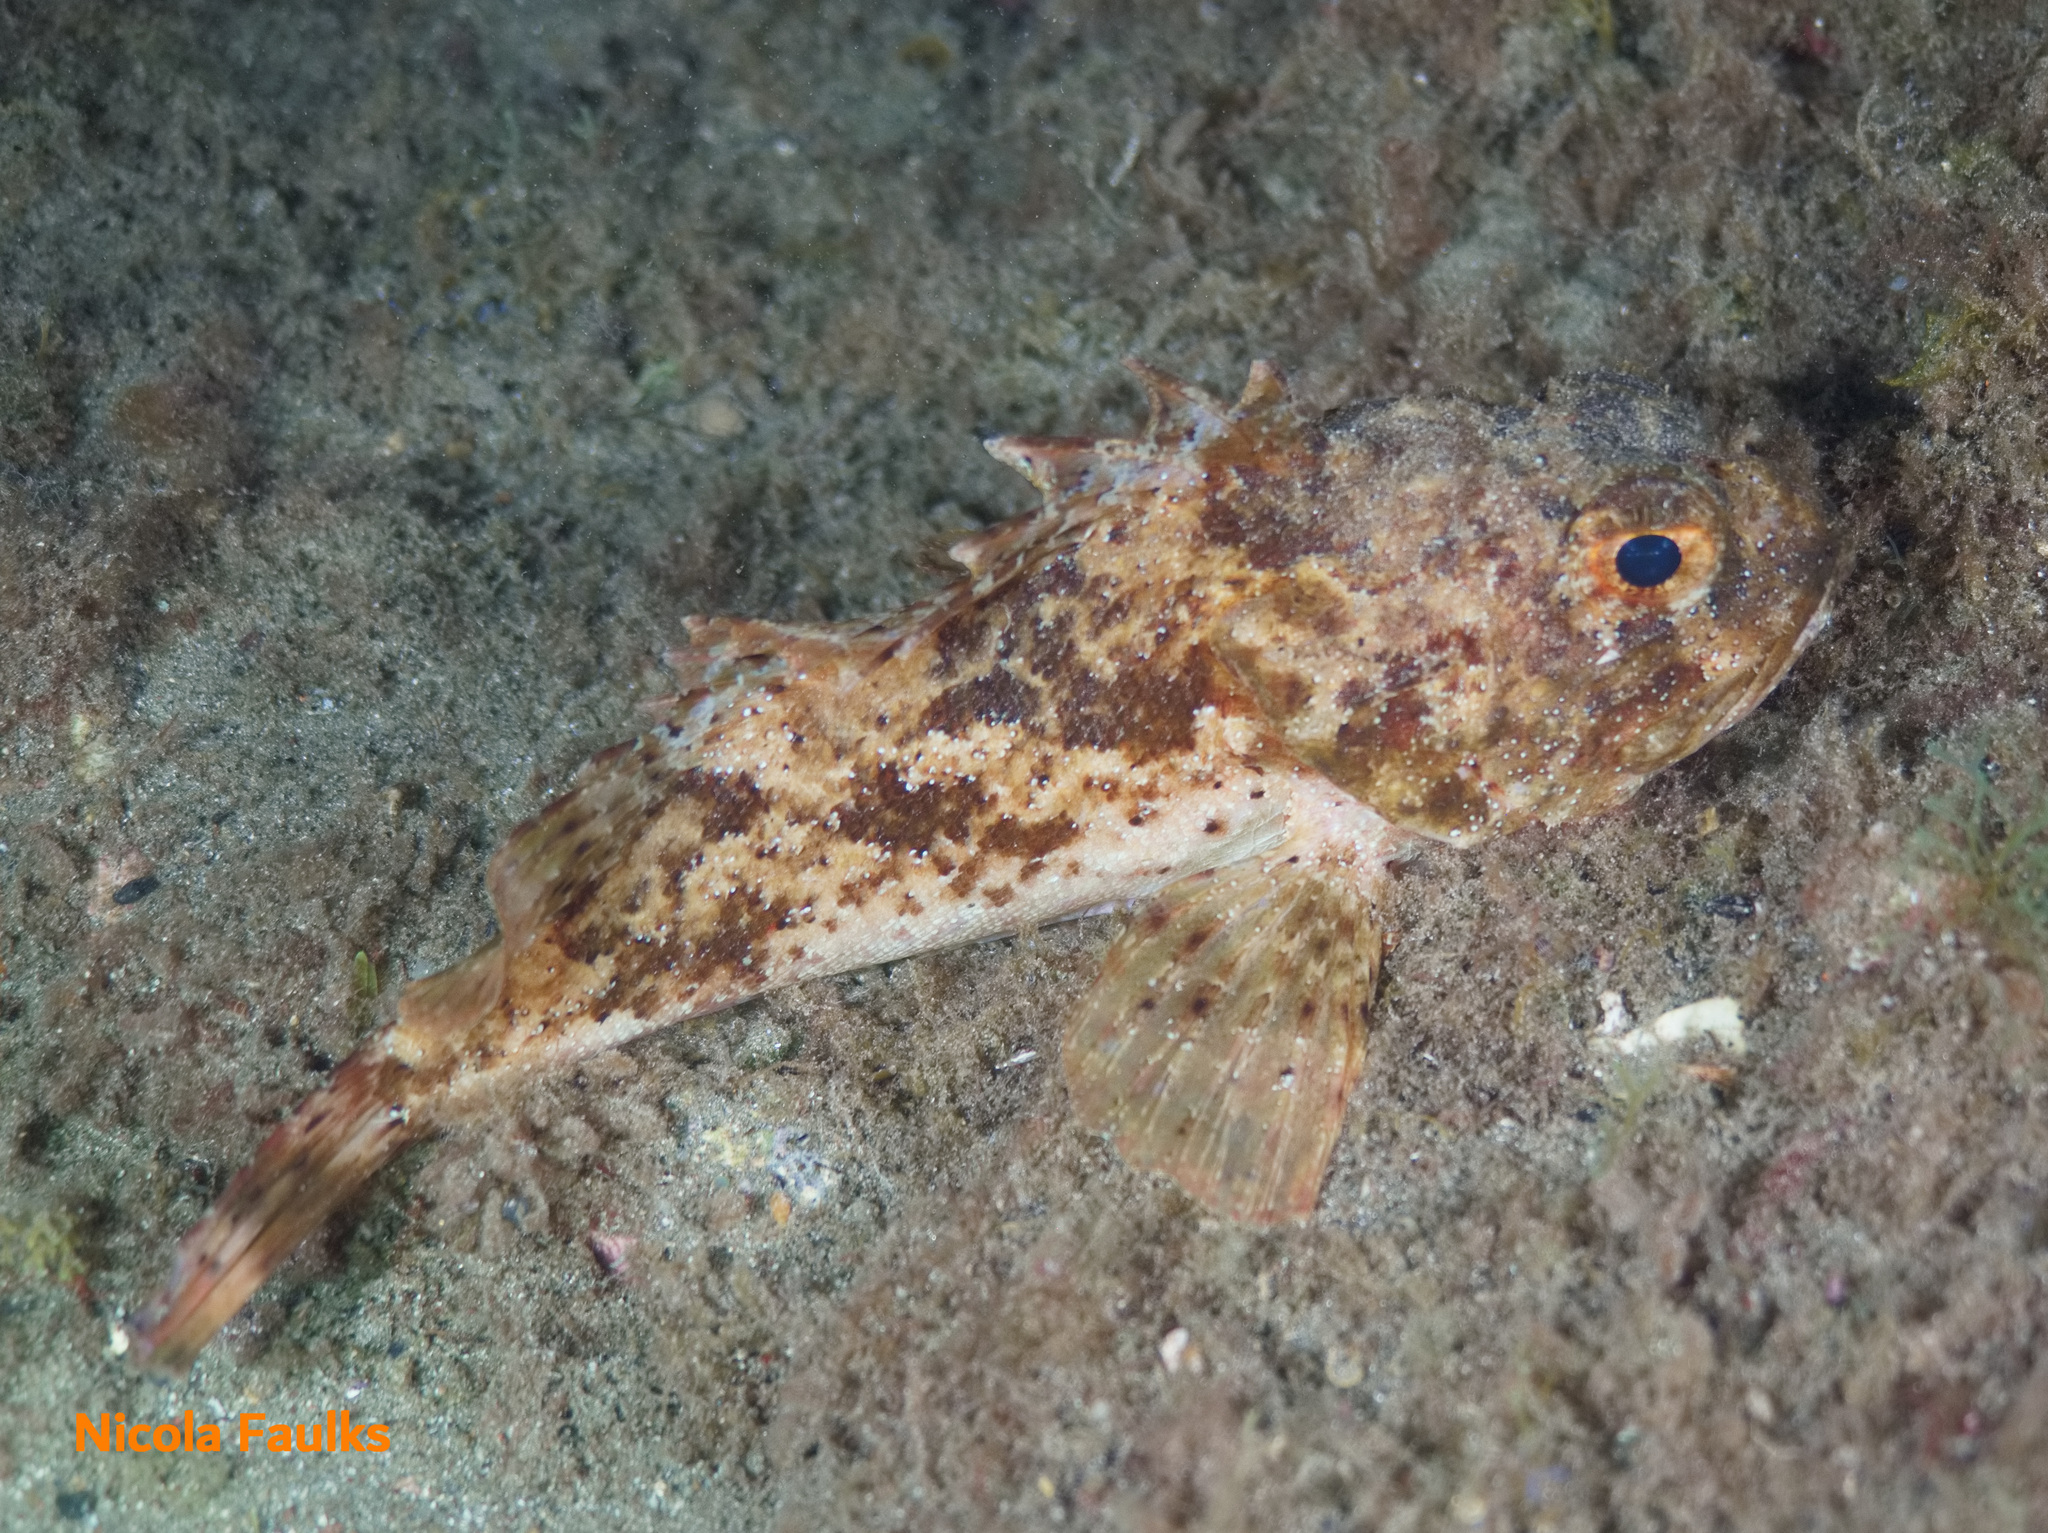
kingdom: Animalia
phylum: Chordata
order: Scorpaeniformes
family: Scorpaenidae
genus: Scorpaena
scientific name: Scorpaena porcus
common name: Black scorpionfish
